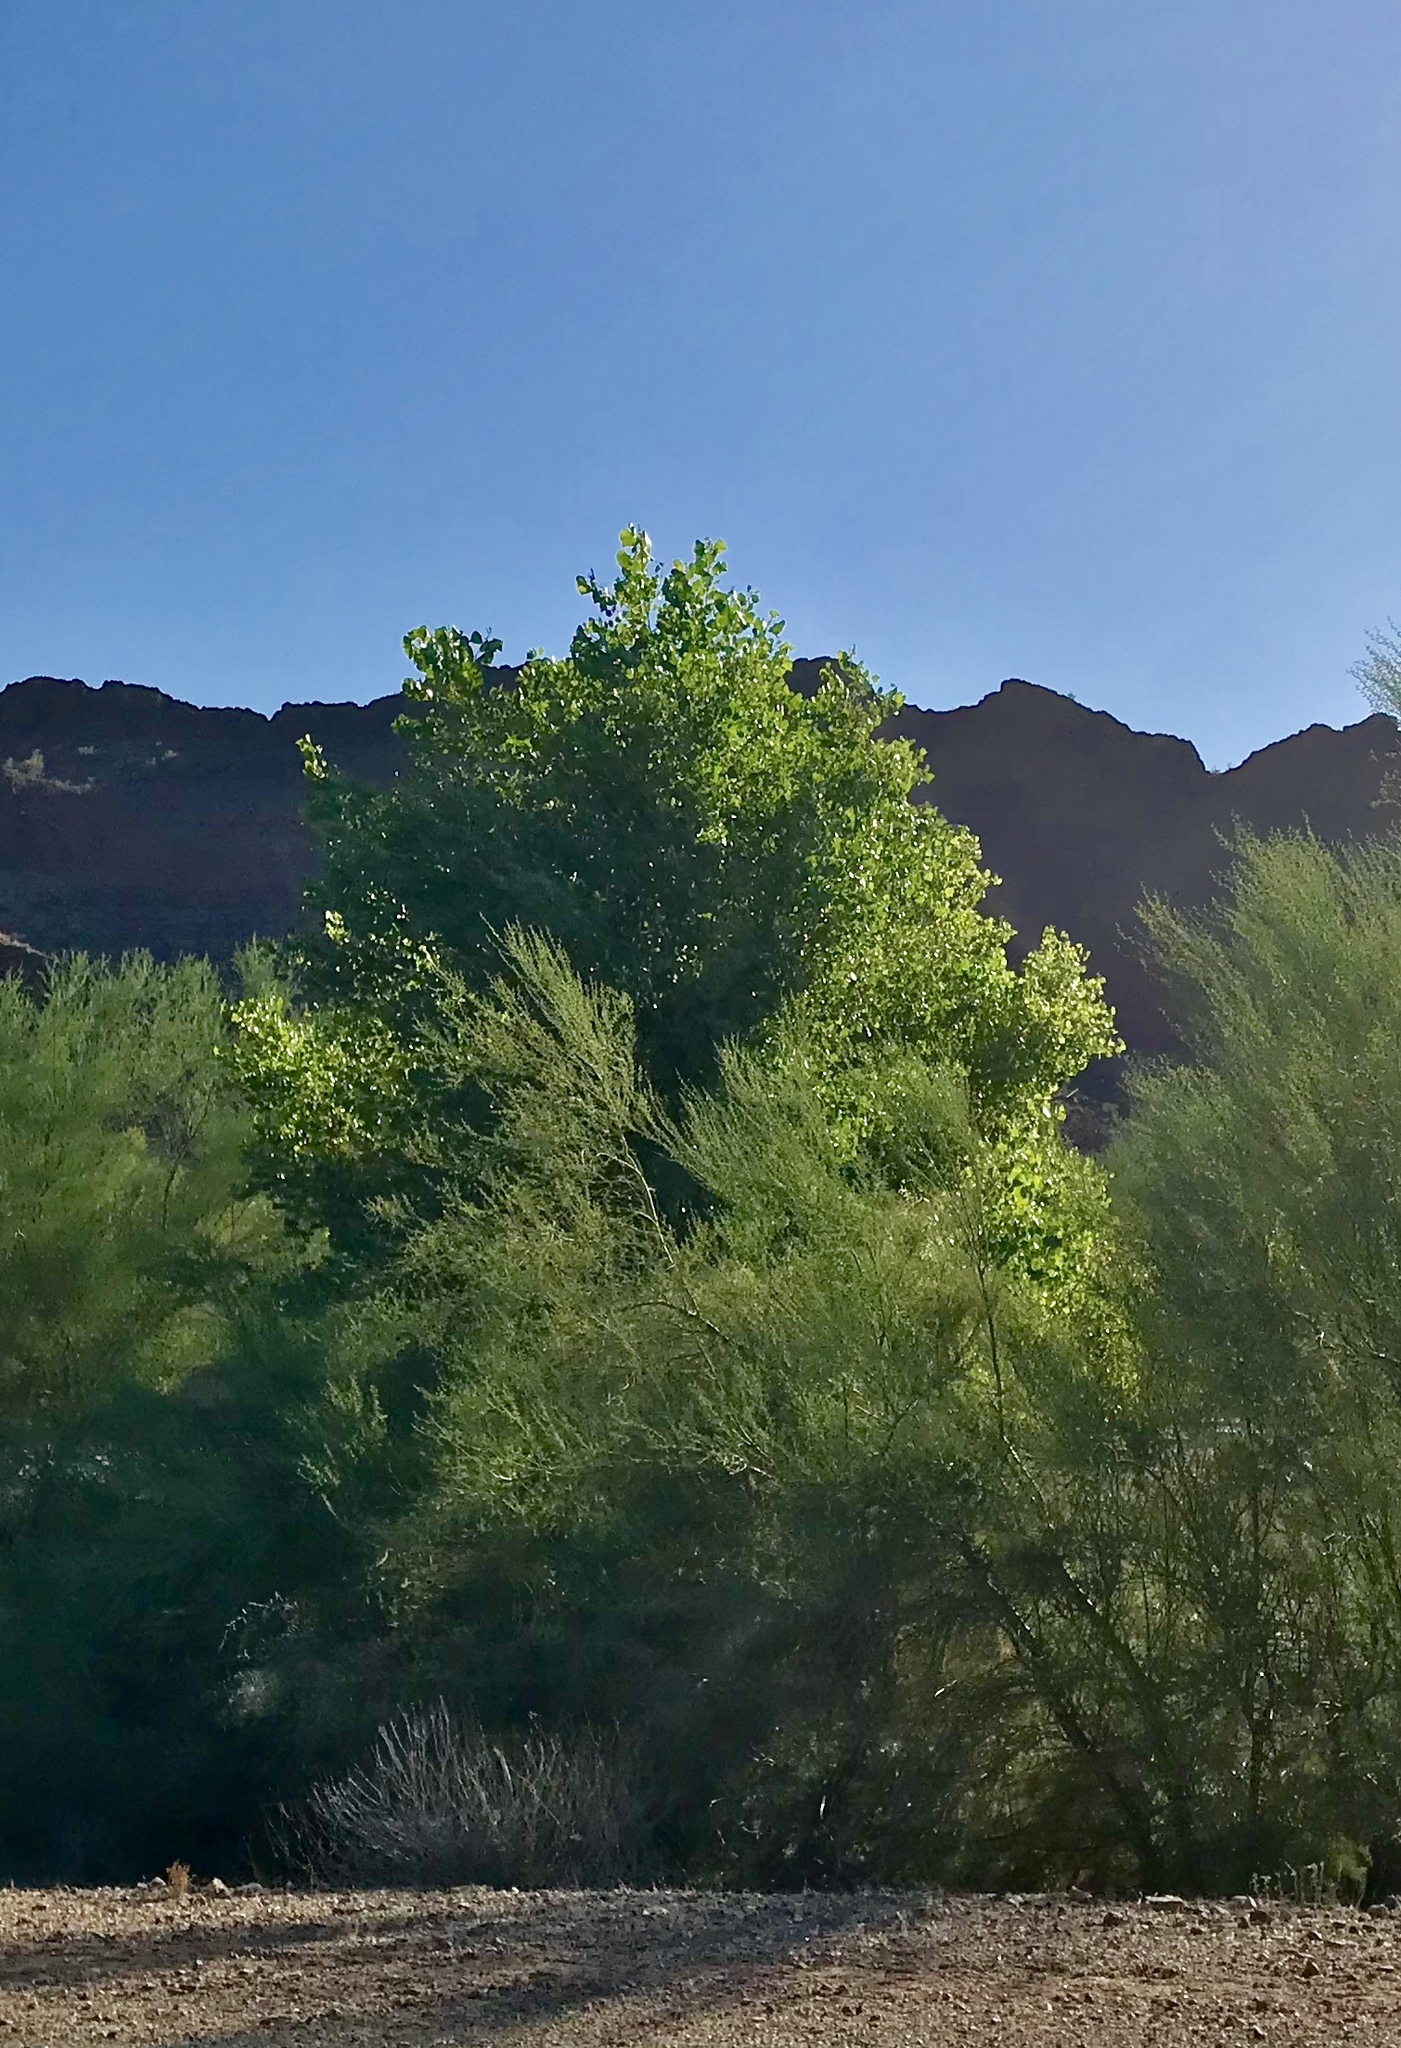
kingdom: Plantae
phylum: Tracheophyta
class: Magnoliopsida
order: Malpighiales
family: Salicaceae
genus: Populus
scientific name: Populus fremontii
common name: Fremont's cottonwood
